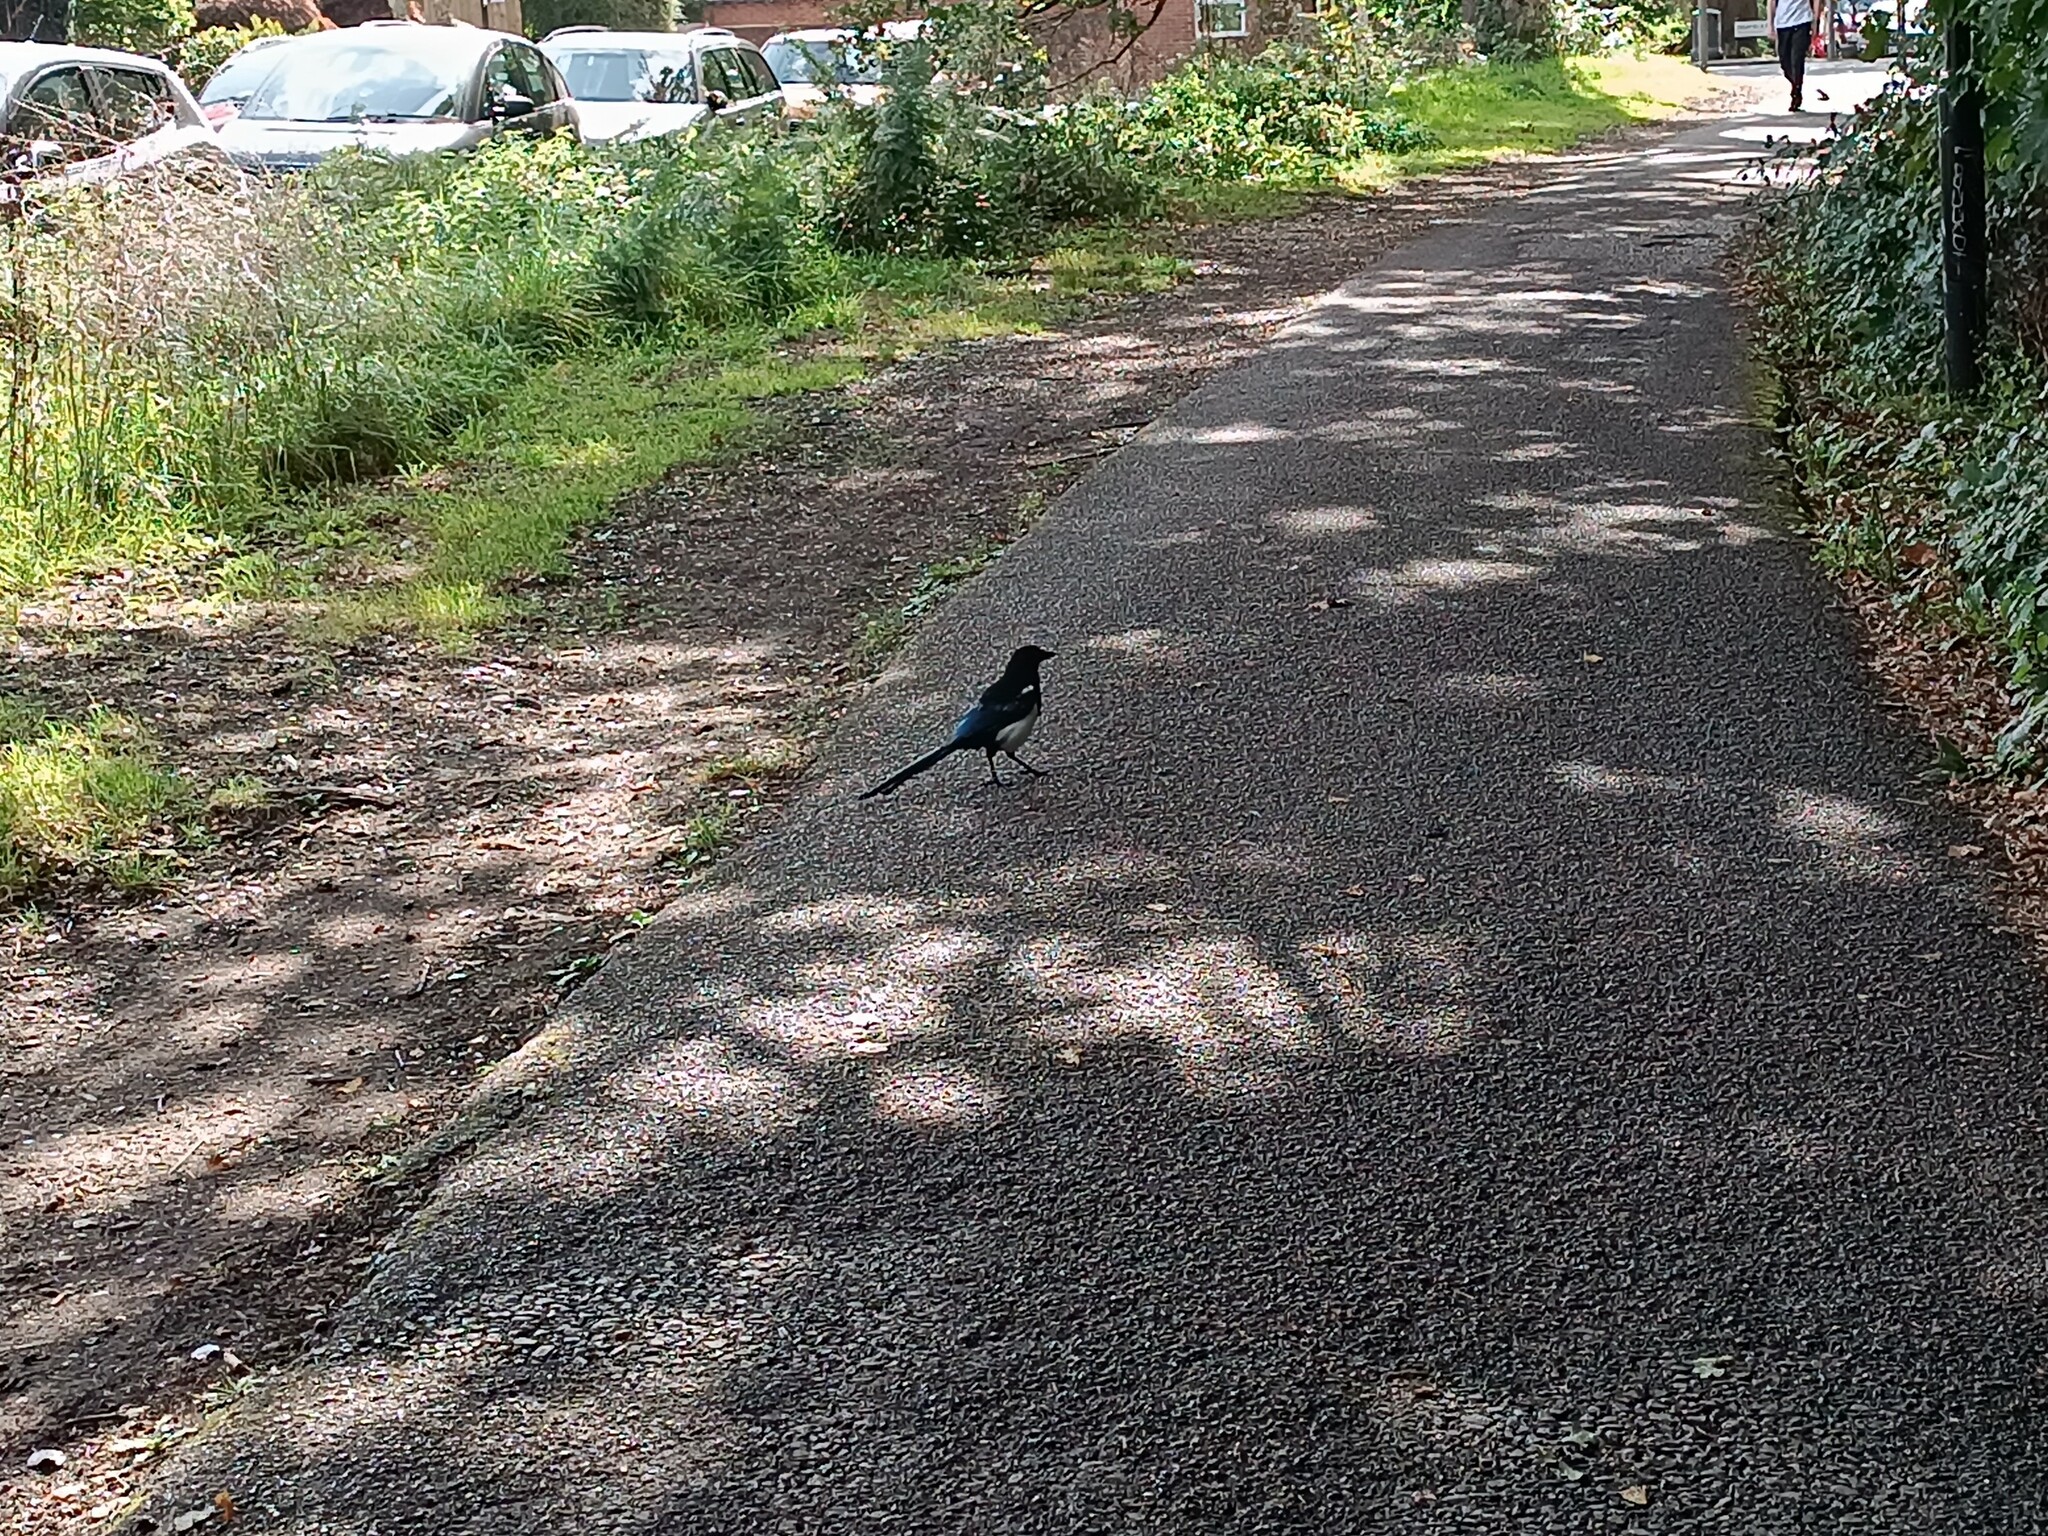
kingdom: Animalia
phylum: Chordata
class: Aves
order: Passeriformes
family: Corvidae
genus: Pica
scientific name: Pica pica
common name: Eurasian magpie
